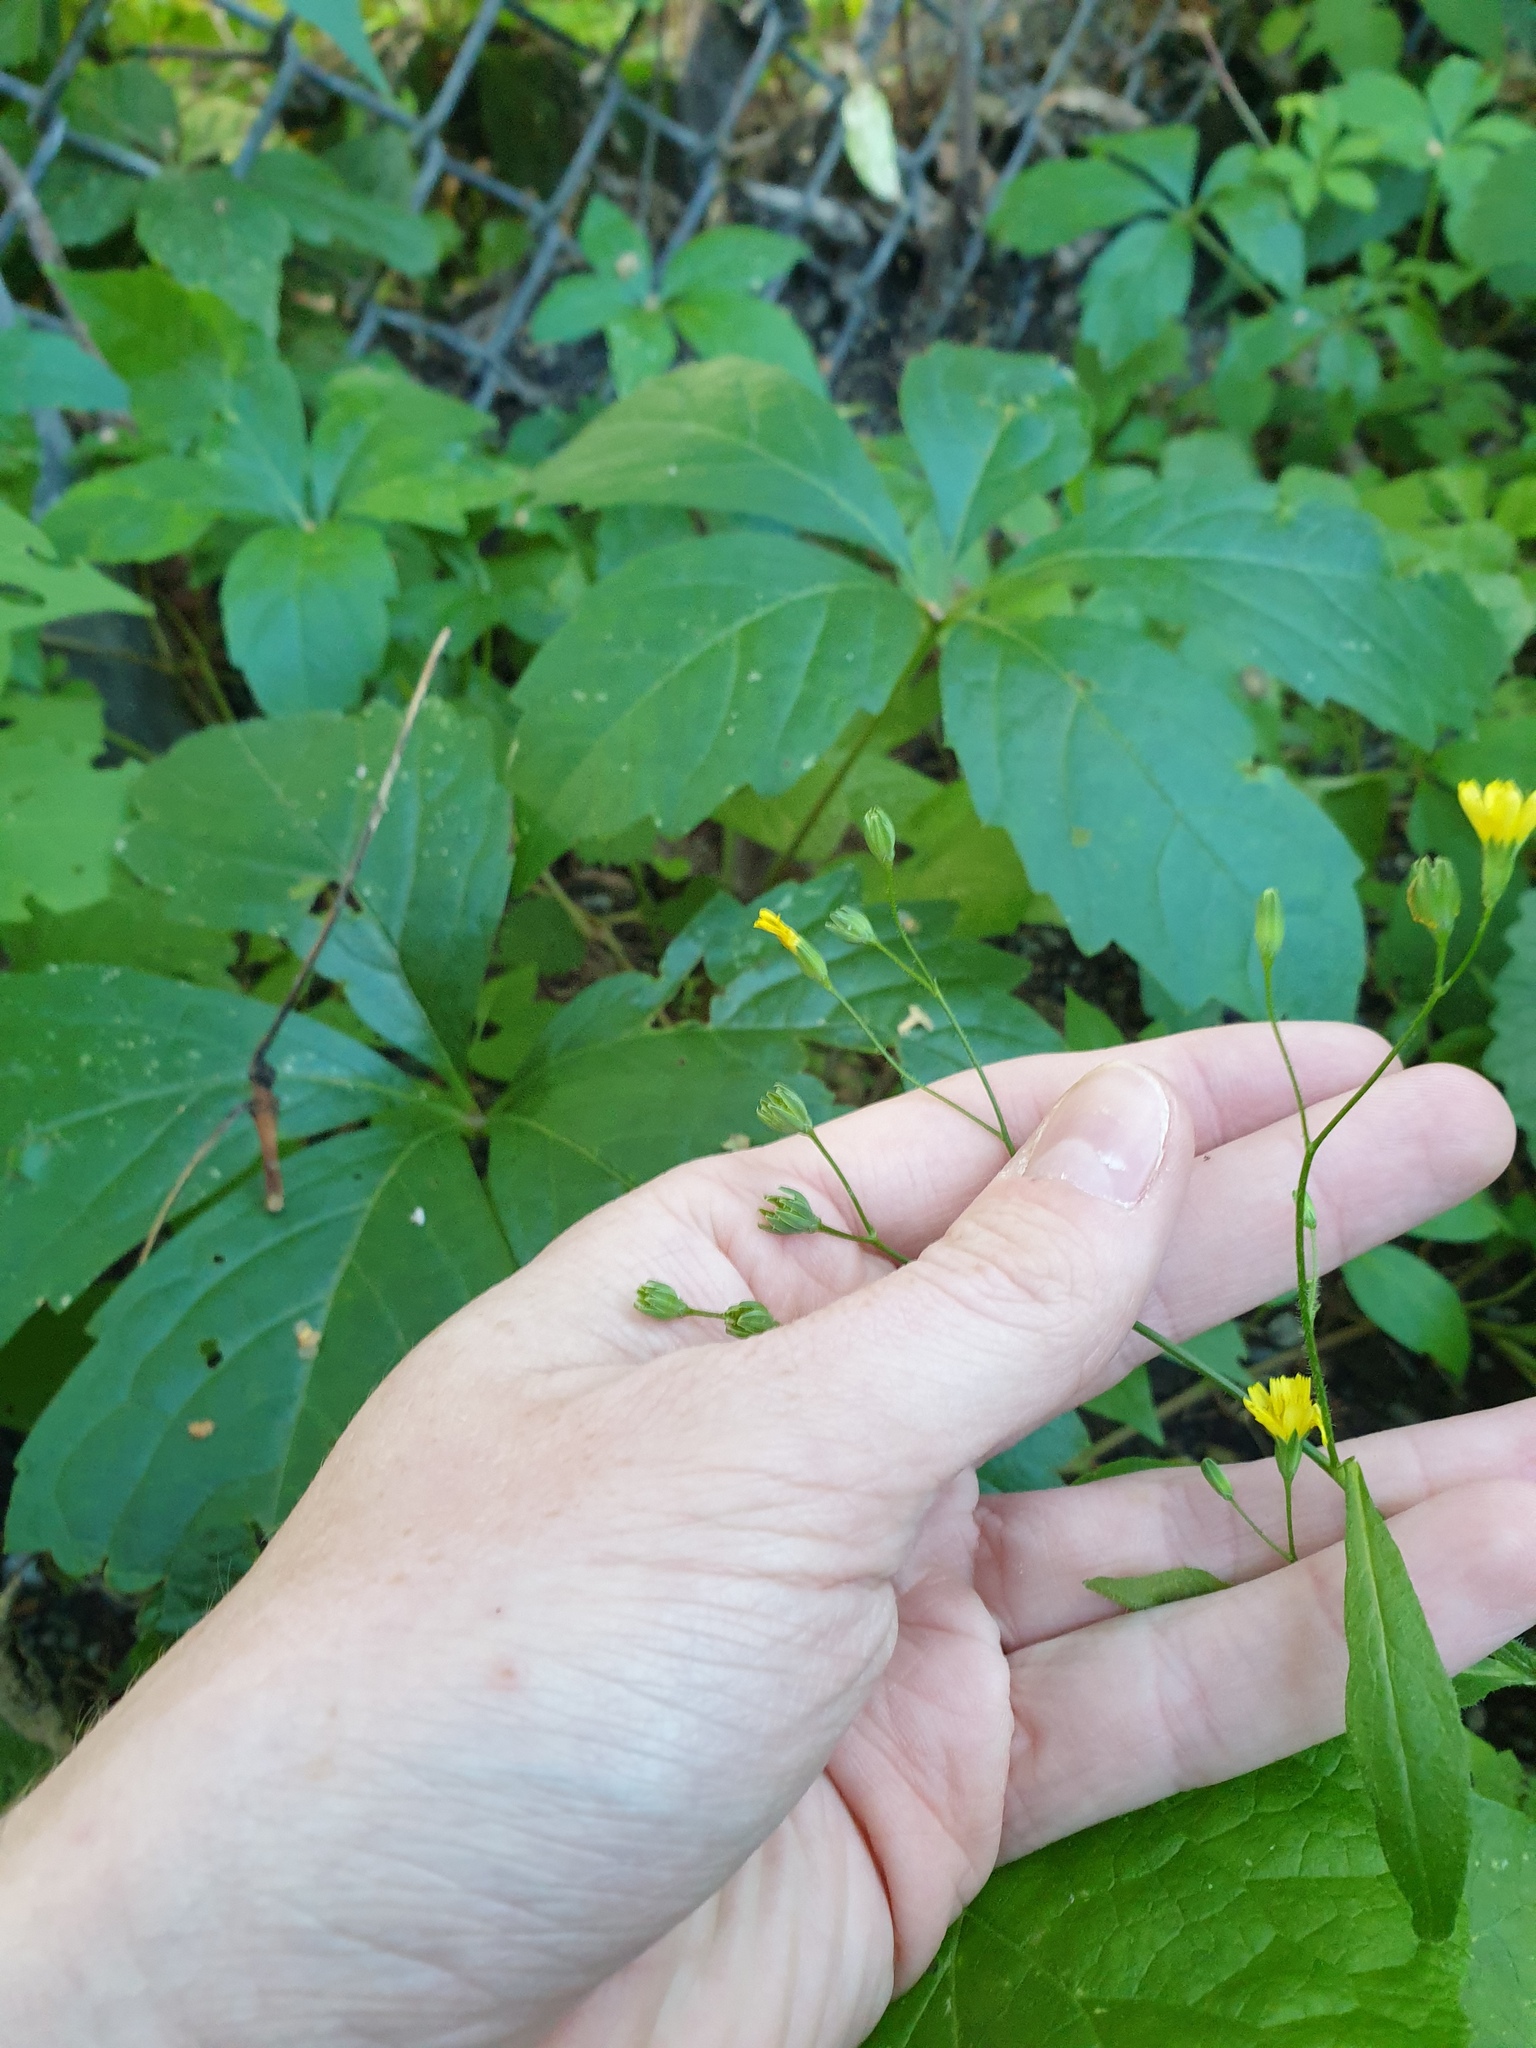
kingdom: Plantae
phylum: Tracheophyta
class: Magnoliopsida
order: Asterales
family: Asteraceae
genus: Lapsana
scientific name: Lapsana communis
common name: Nipplewort
